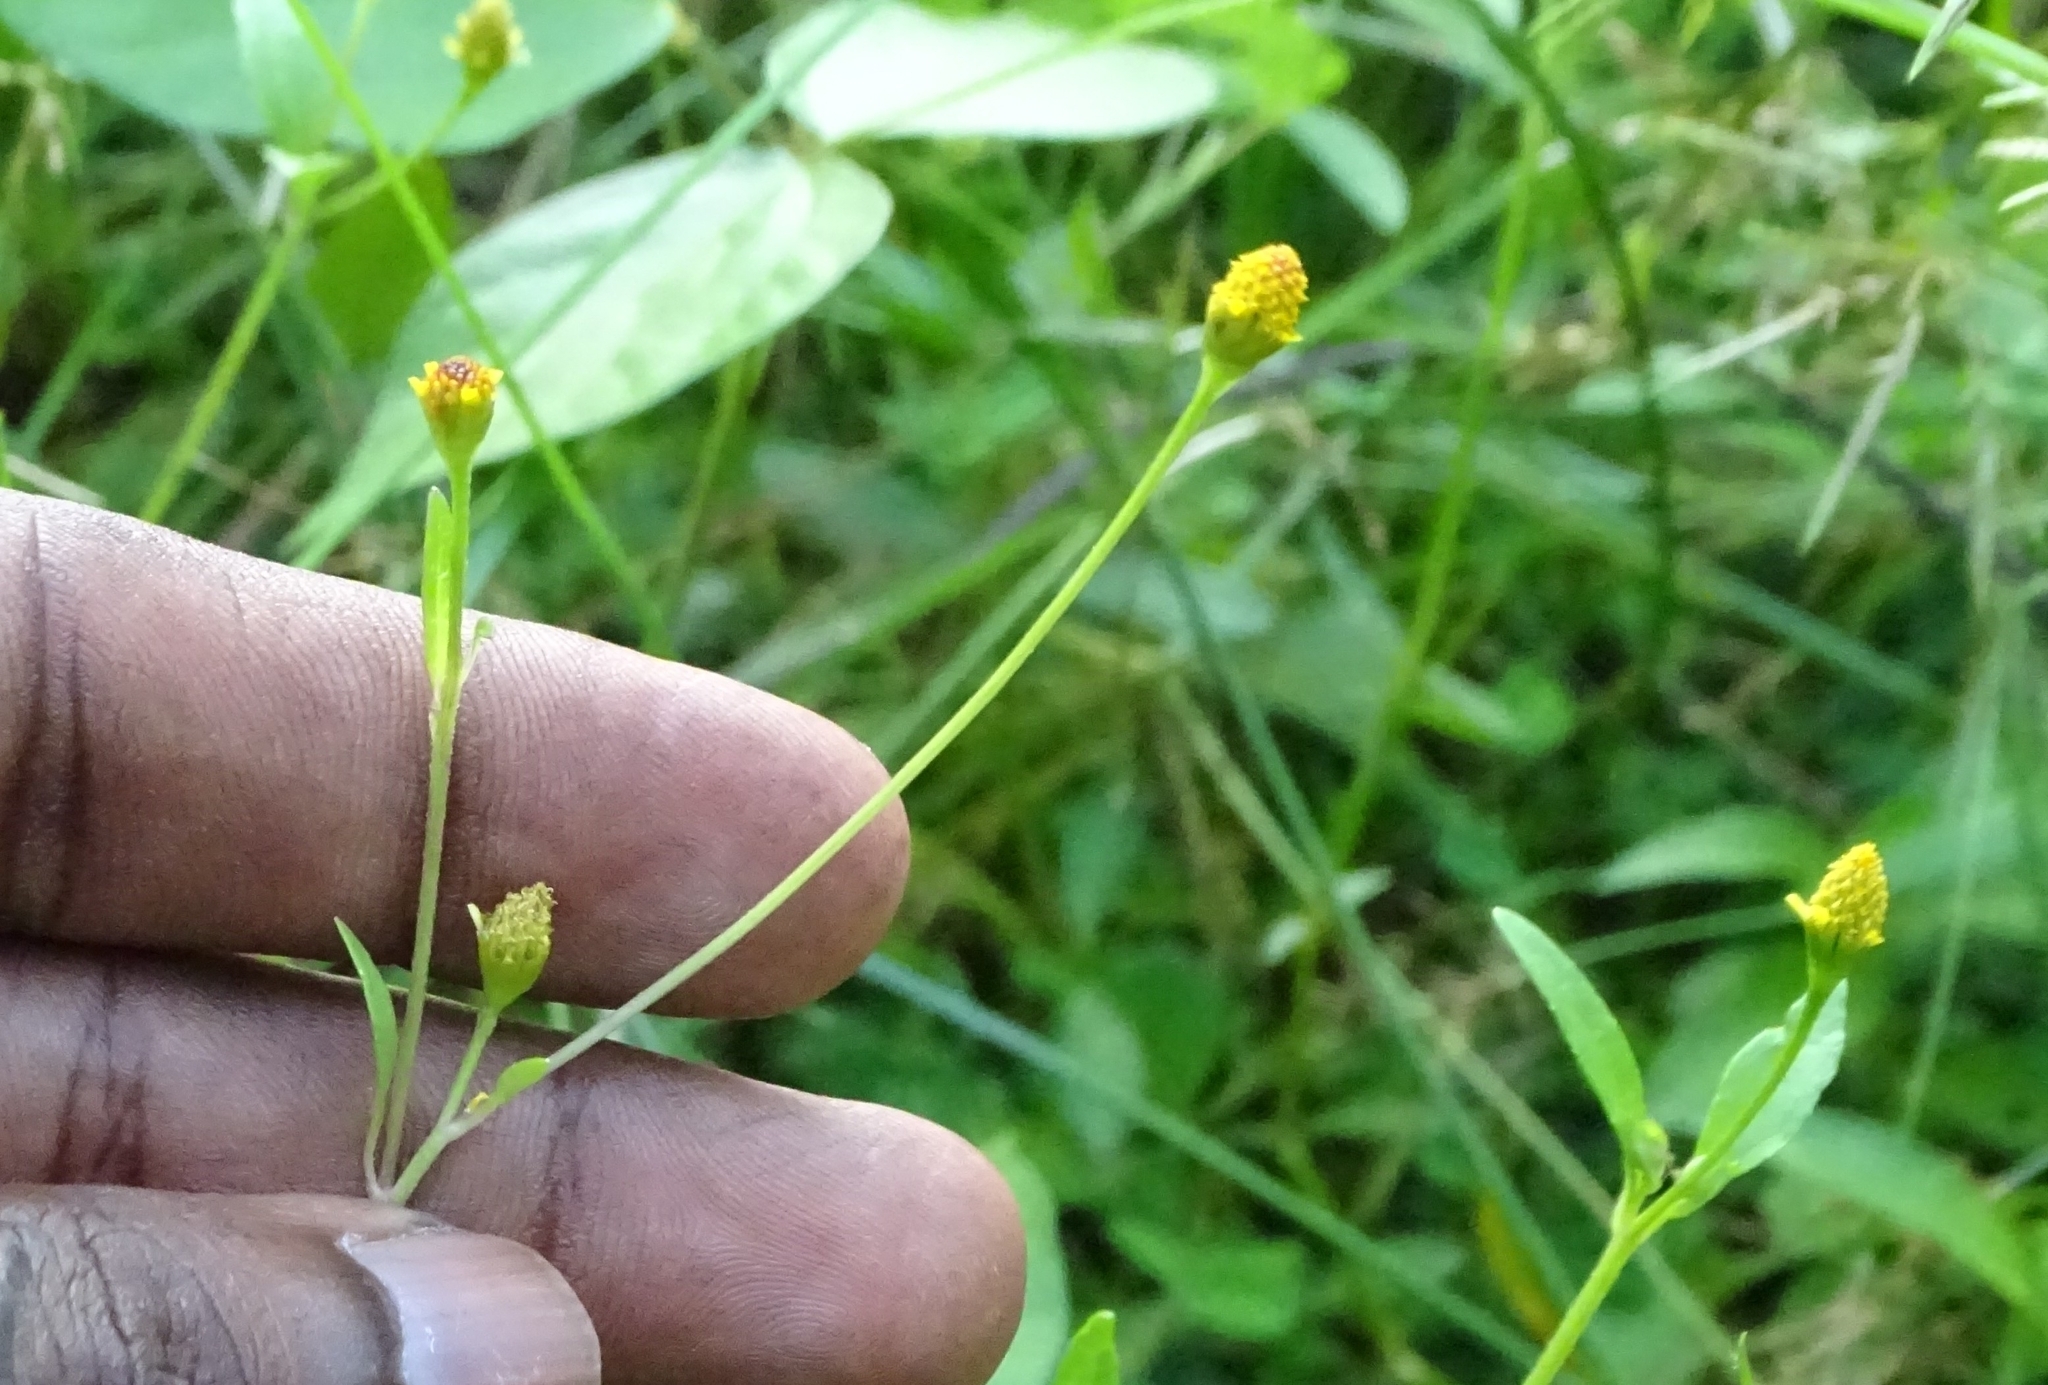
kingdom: Plantae
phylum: Tracheophyta
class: Magnoliopsida
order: Asterales
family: Asteraceae
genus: Acmella
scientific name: Acmella uliginosa
